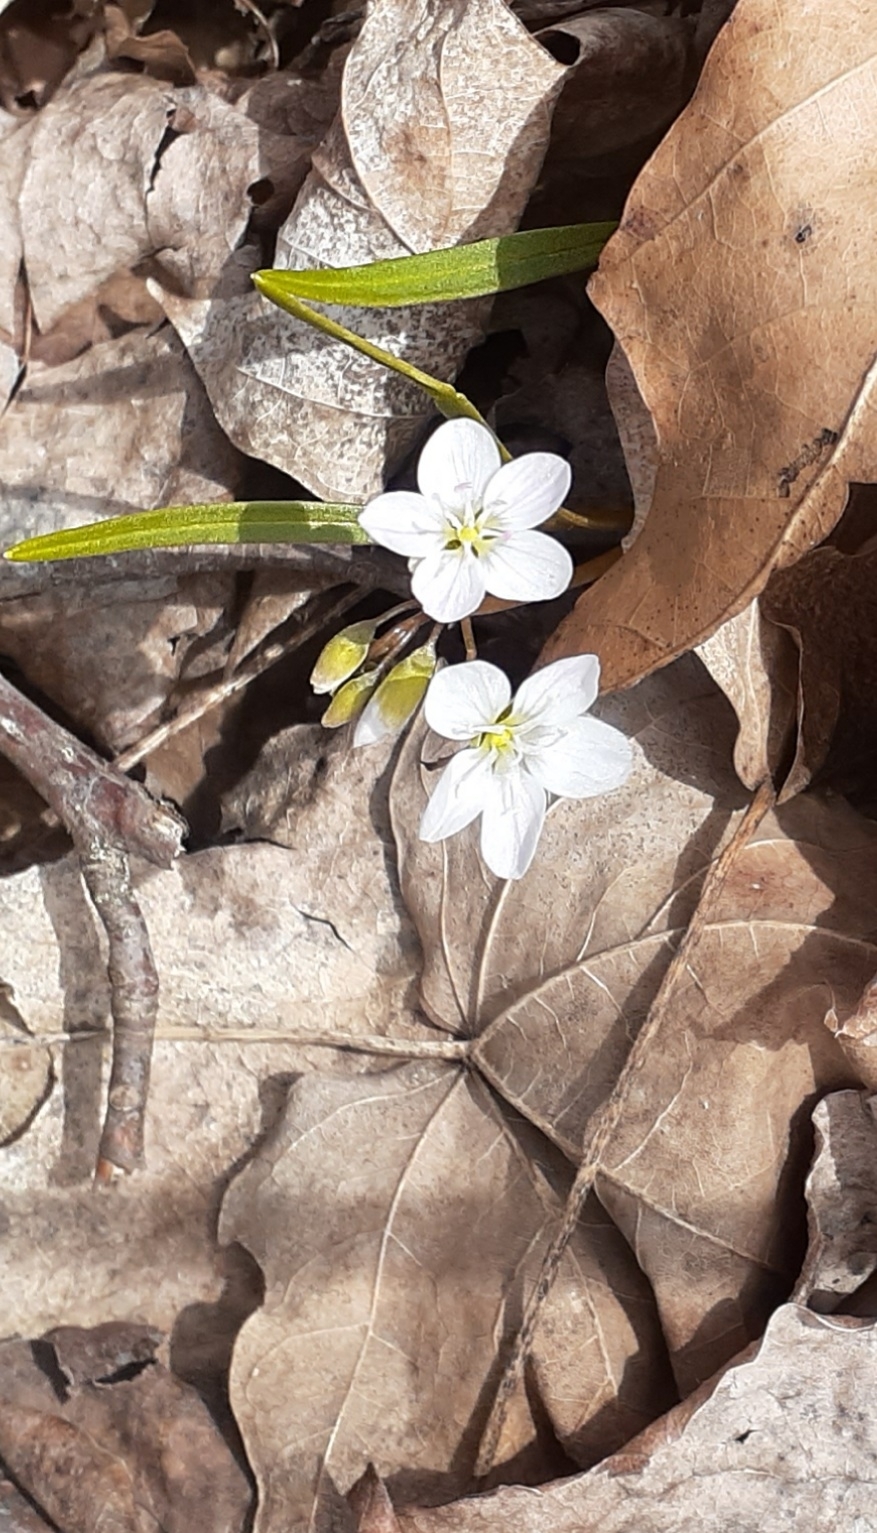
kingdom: Plantae
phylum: Tracheophyta
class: Magnoliopsida
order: Caryophyllales
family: Montiaceae
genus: Claytonia
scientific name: Claytonia virginica
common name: Virginia springbeauty
